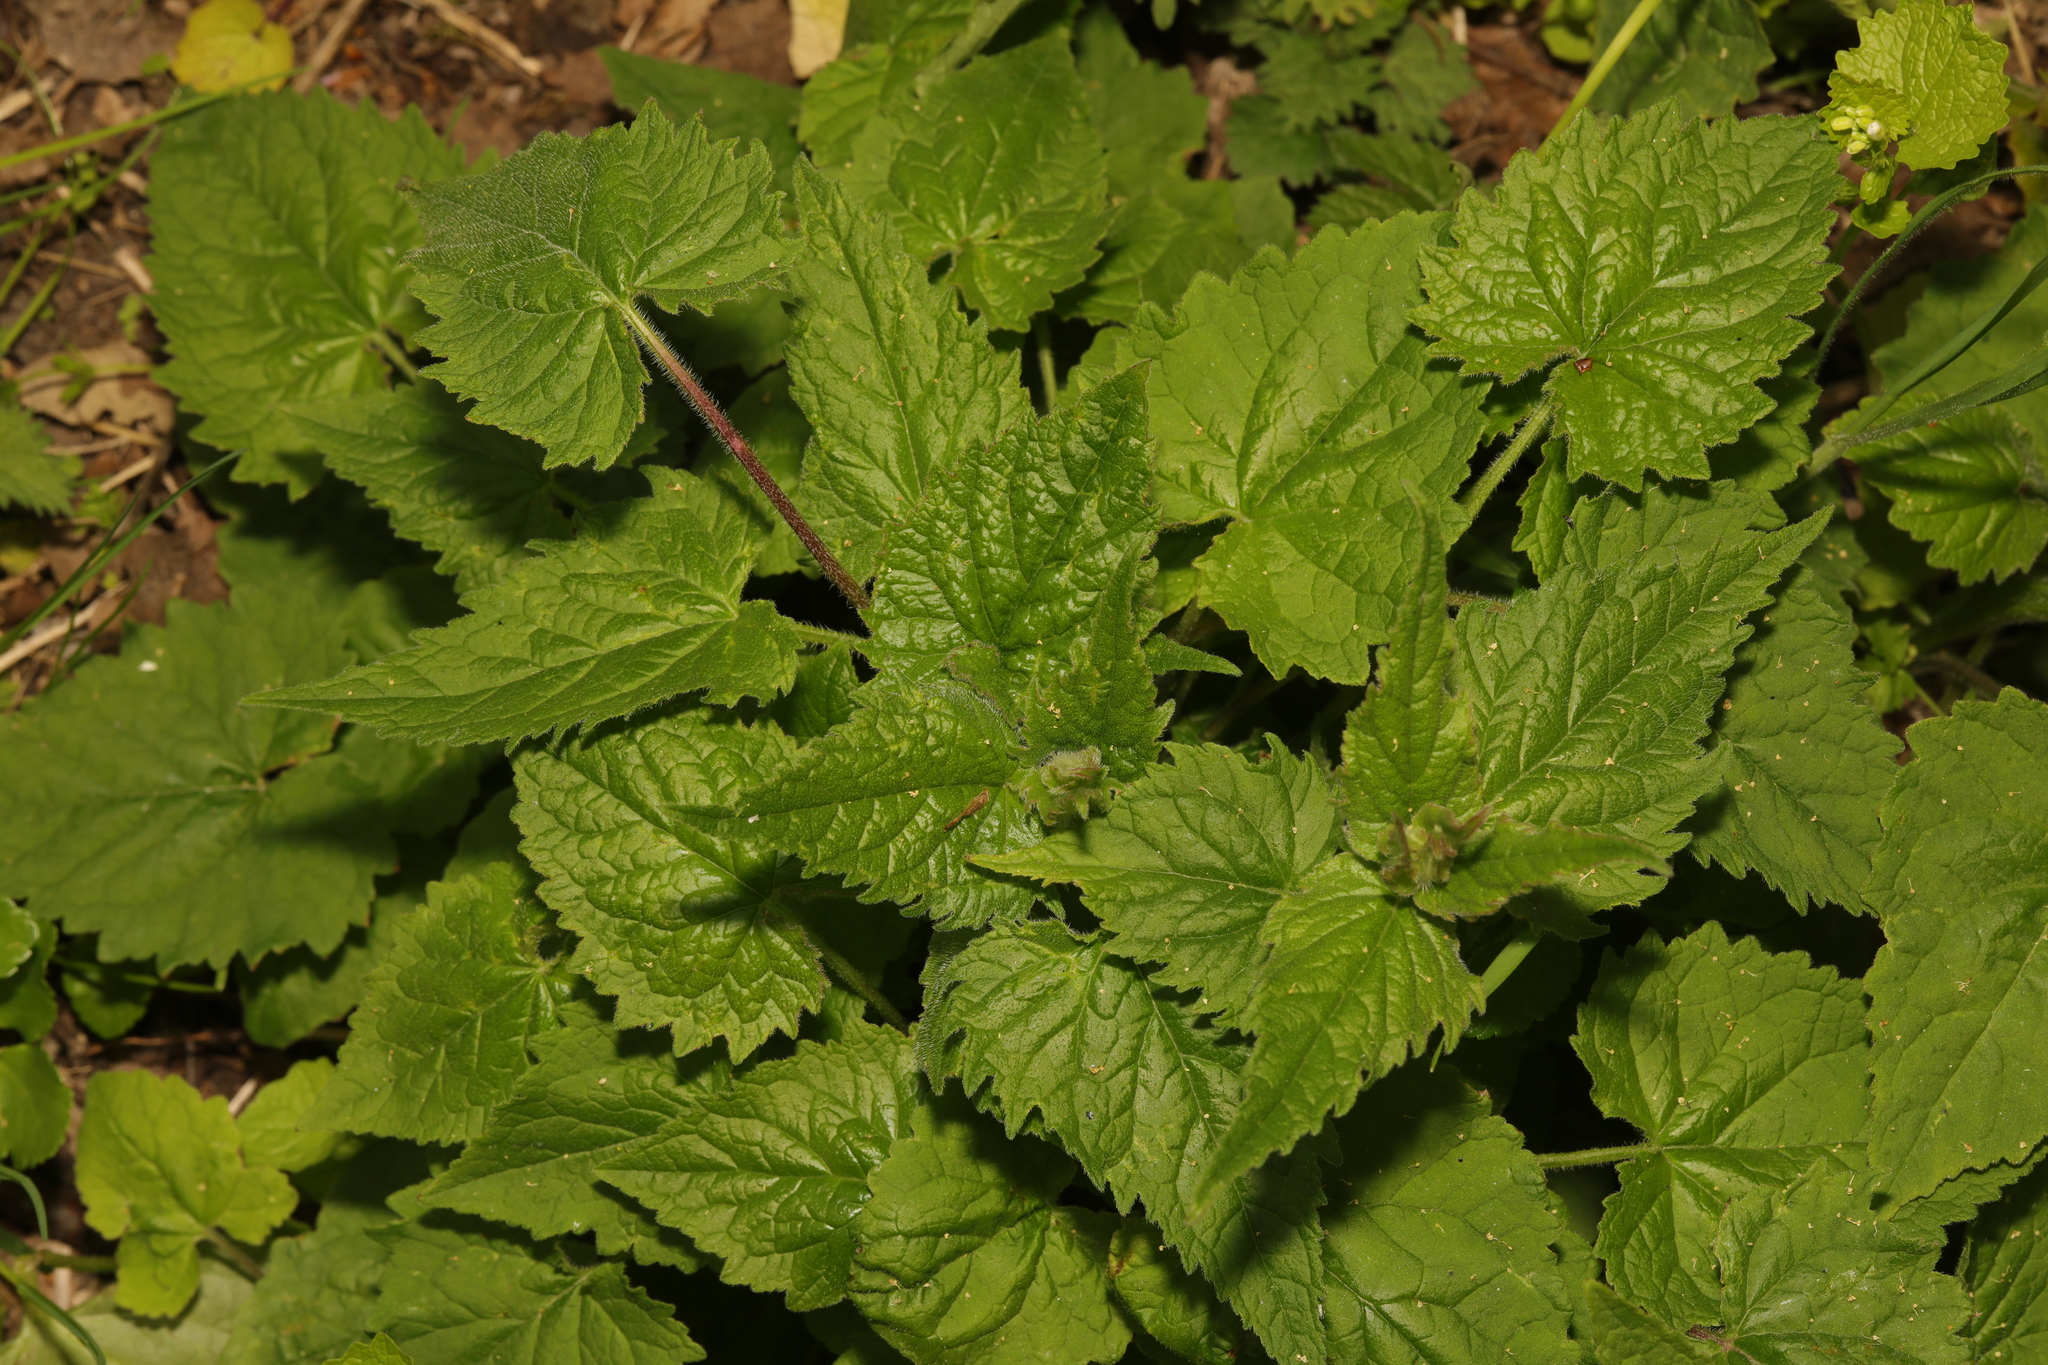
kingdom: Plantae
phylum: Tracheophyta
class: Magnoliopsida
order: Asterales
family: Campanulaceae
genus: Campanula
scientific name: Campanula trachelium
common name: Nettle-leaved bellflower
